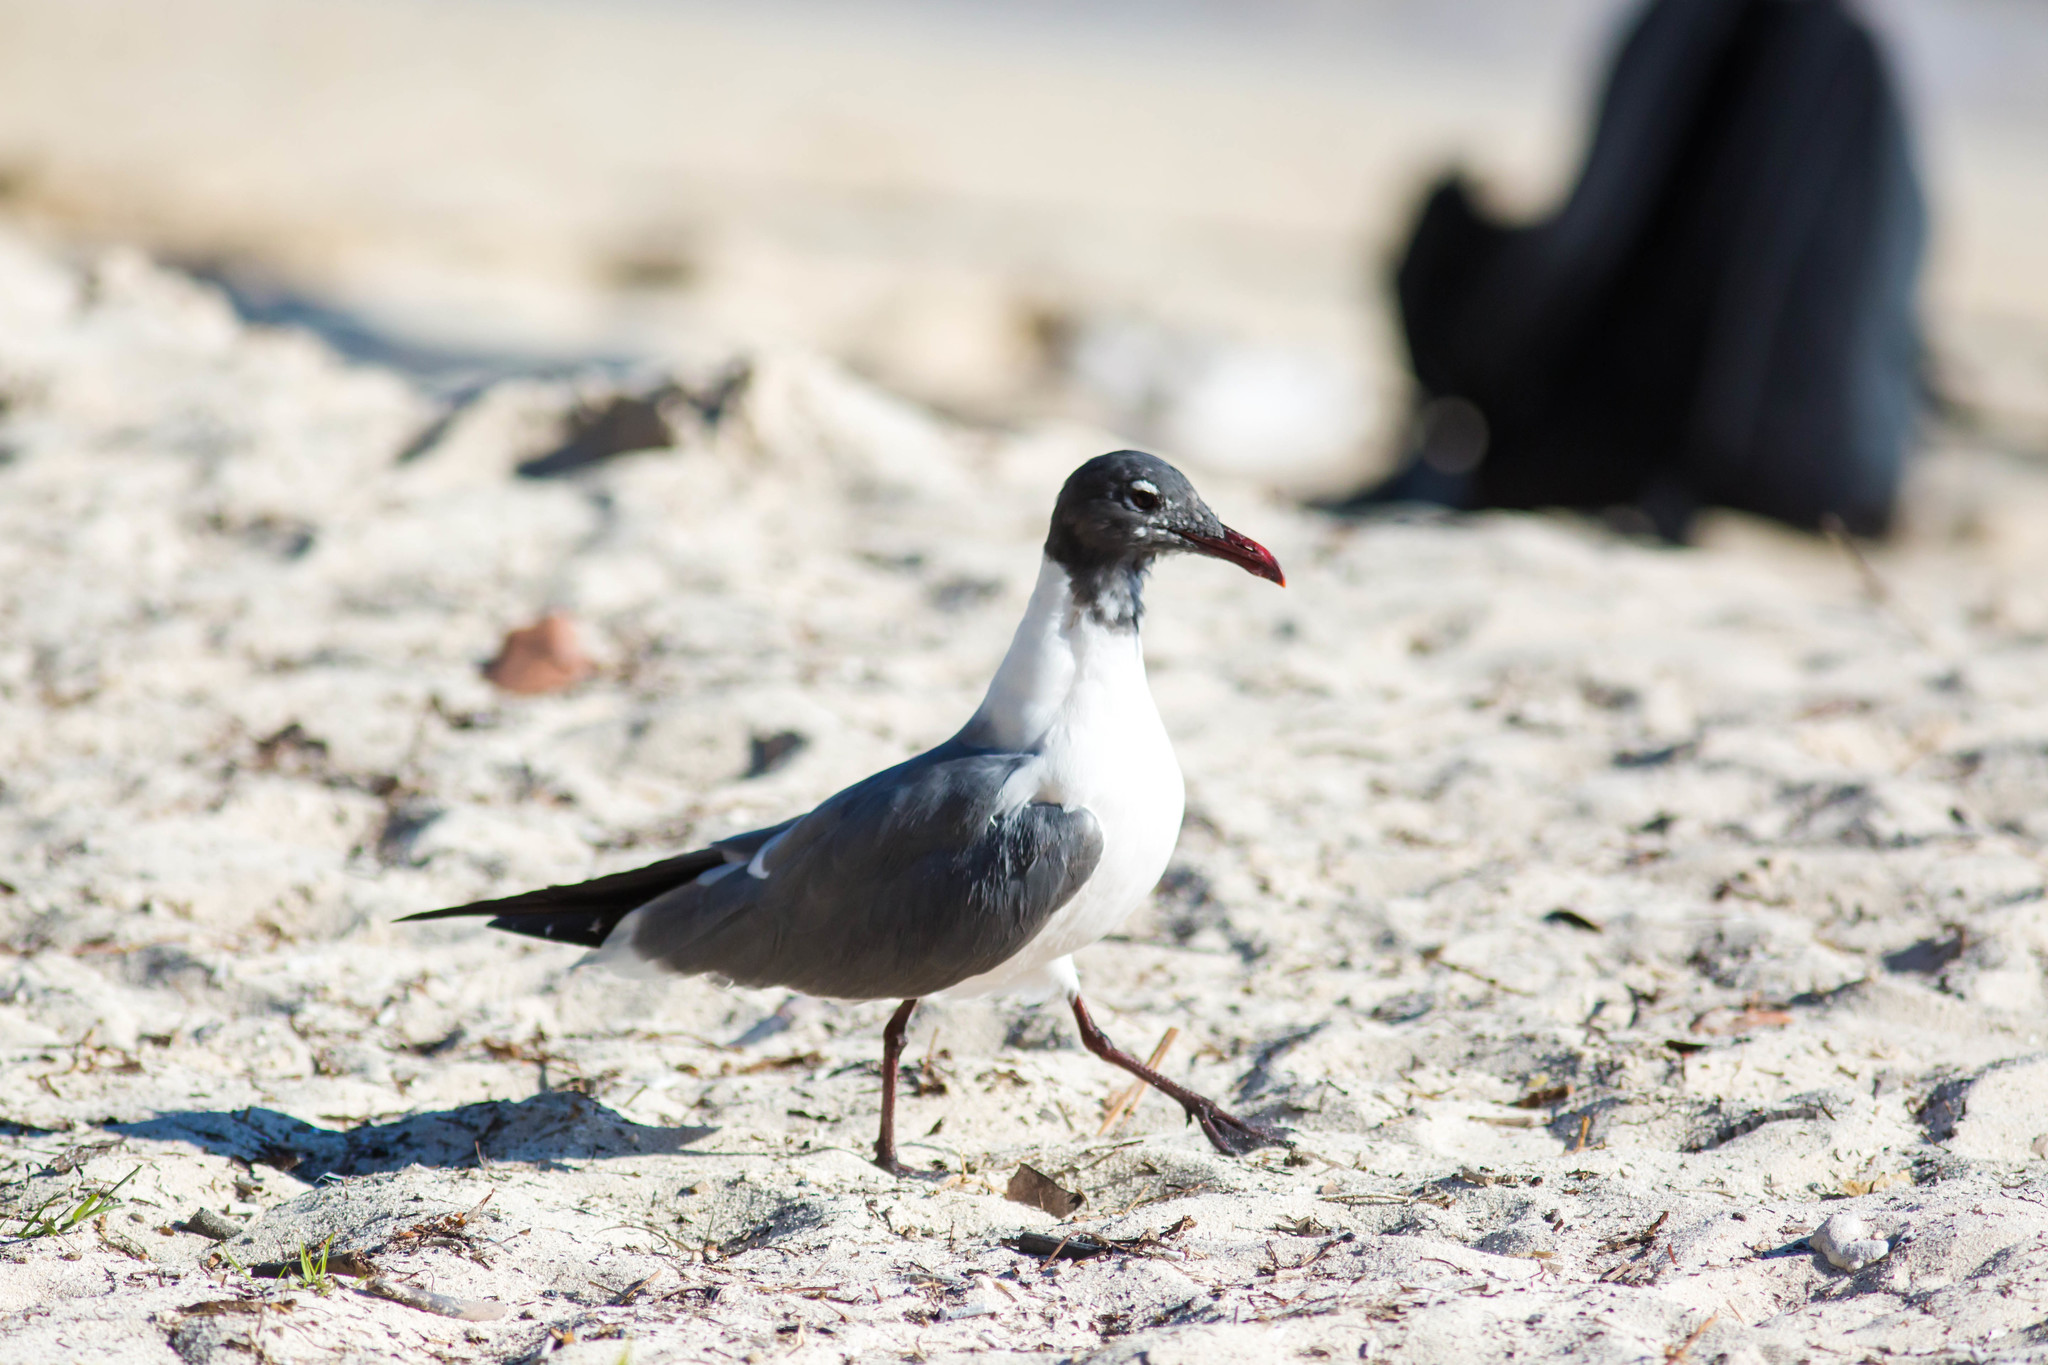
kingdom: Animalia
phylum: Chordata
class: Aves
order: Charadriiformes
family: Laridae
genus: Leucophaeus
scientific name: Leucophaeus atricilla
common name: Laughing gull
